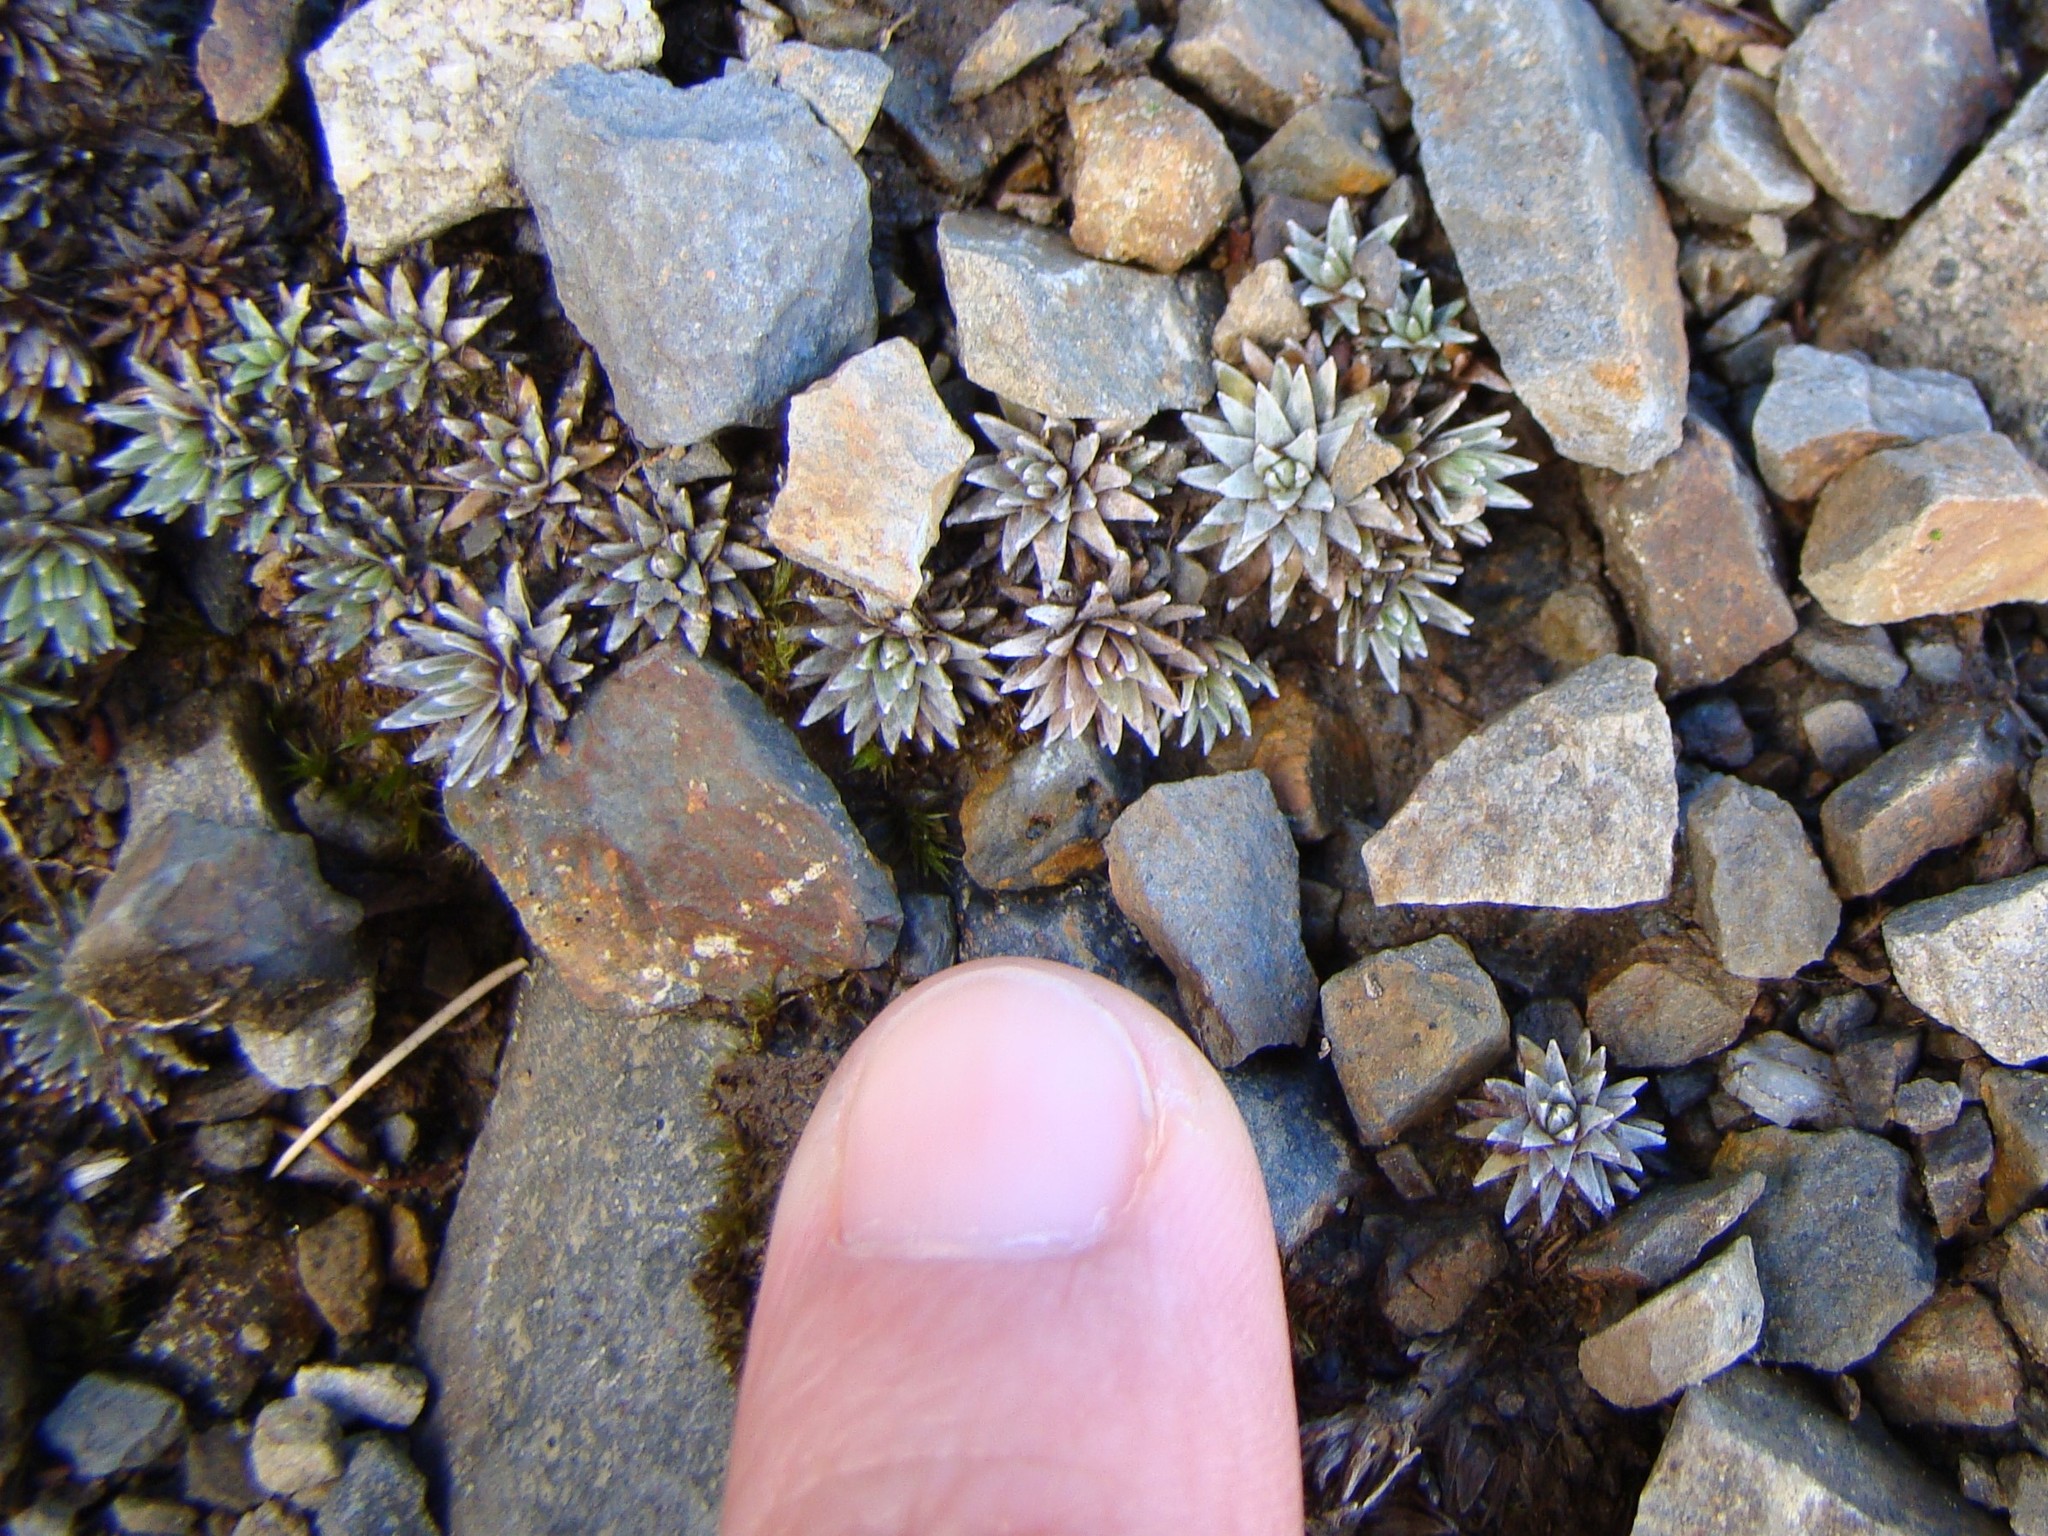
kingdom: Plantae
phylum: Tracheophyta
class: Magnoliopsida
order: Asterales
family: Asteraceae
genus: Raoulia
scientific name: Raoulia grandiflora
